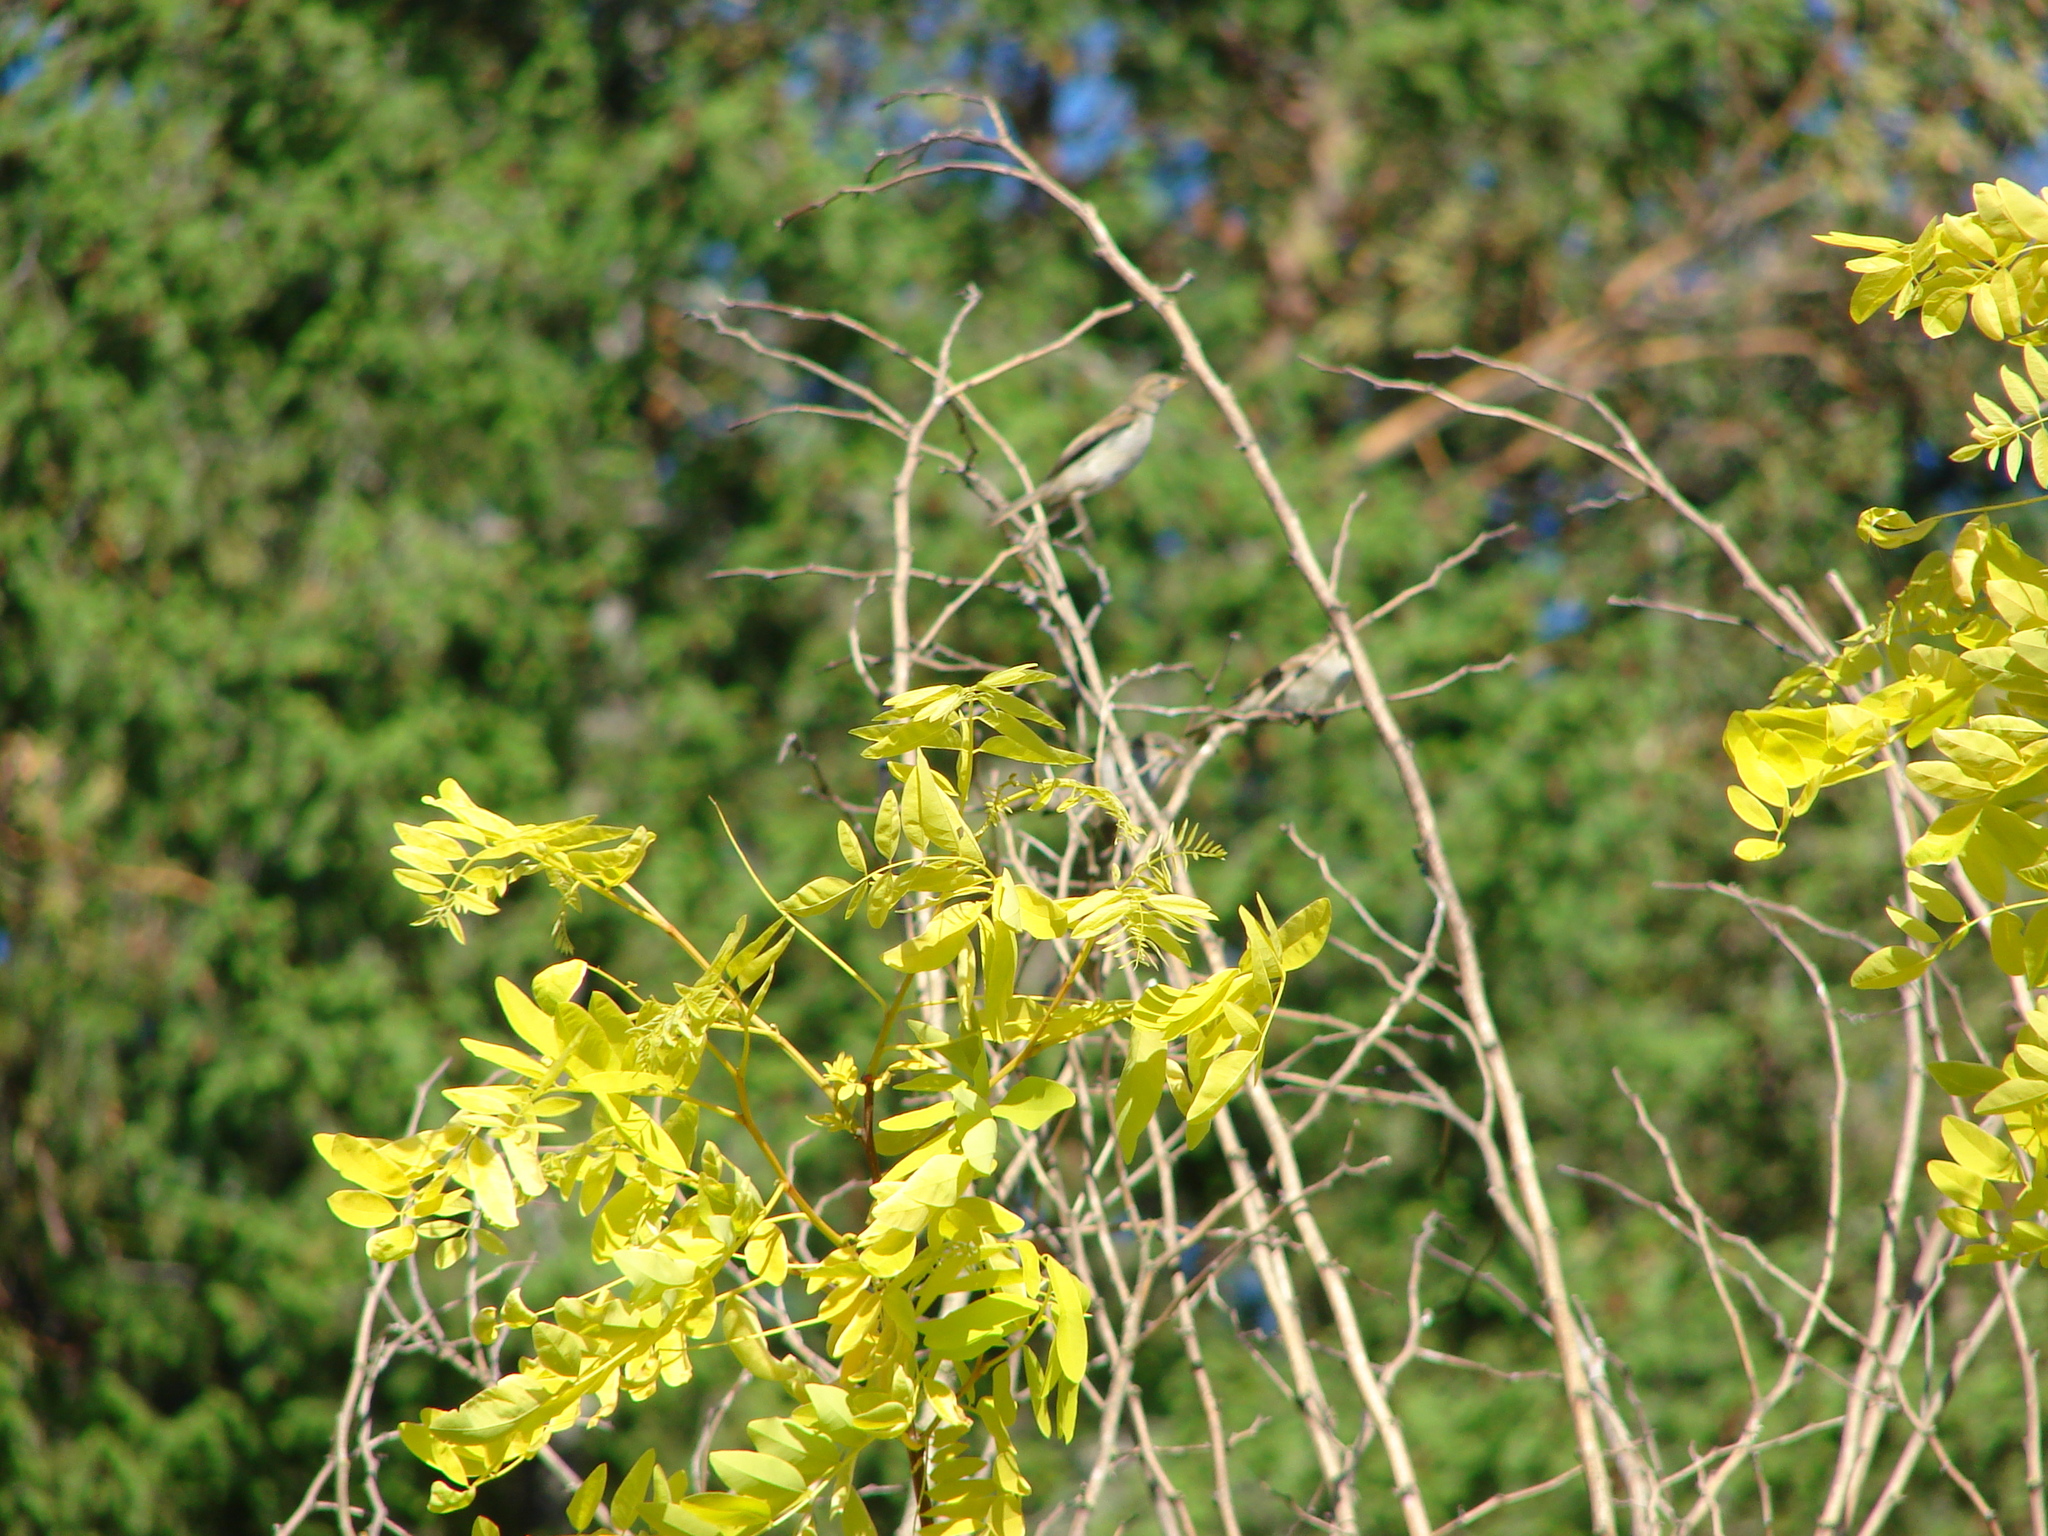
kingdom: Animalia
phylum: Chordata
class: Aves
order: Passeriformes
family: Passeridae
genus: Passer
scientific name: Passer domesticus
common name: House sparrow
